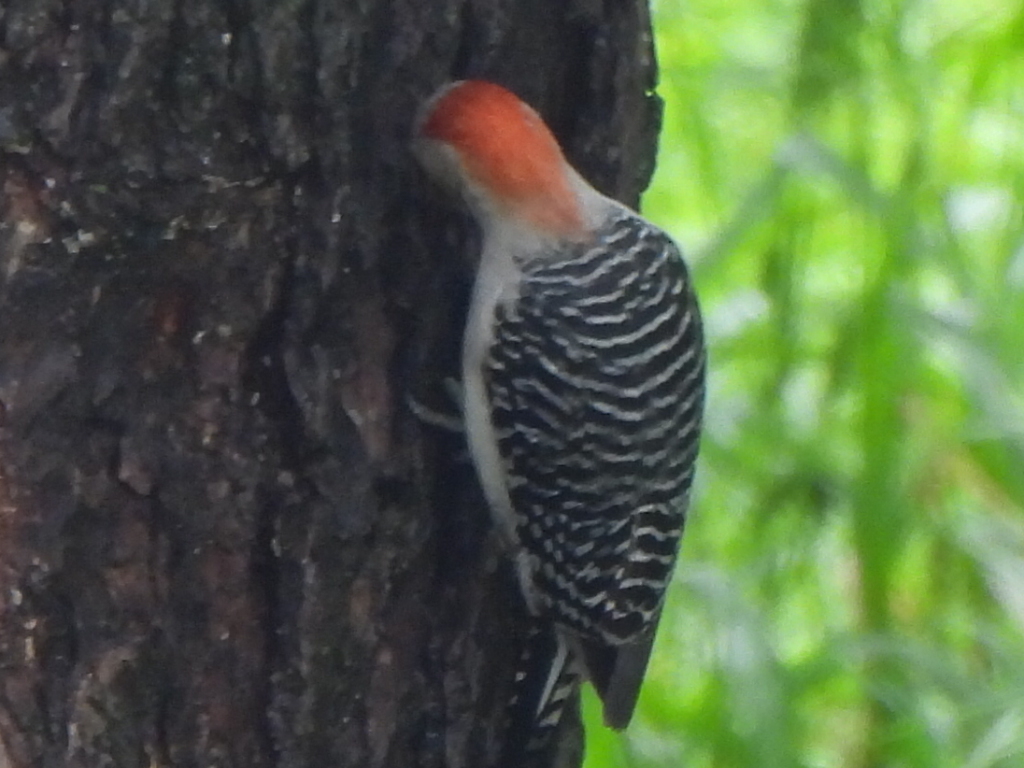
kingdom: Animalia
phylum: Chordata
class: Aves
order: Piciformes
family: Picidae
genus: Melanerpes
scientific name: Melanerpes carolinus
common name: Red-bellied woodpecker
